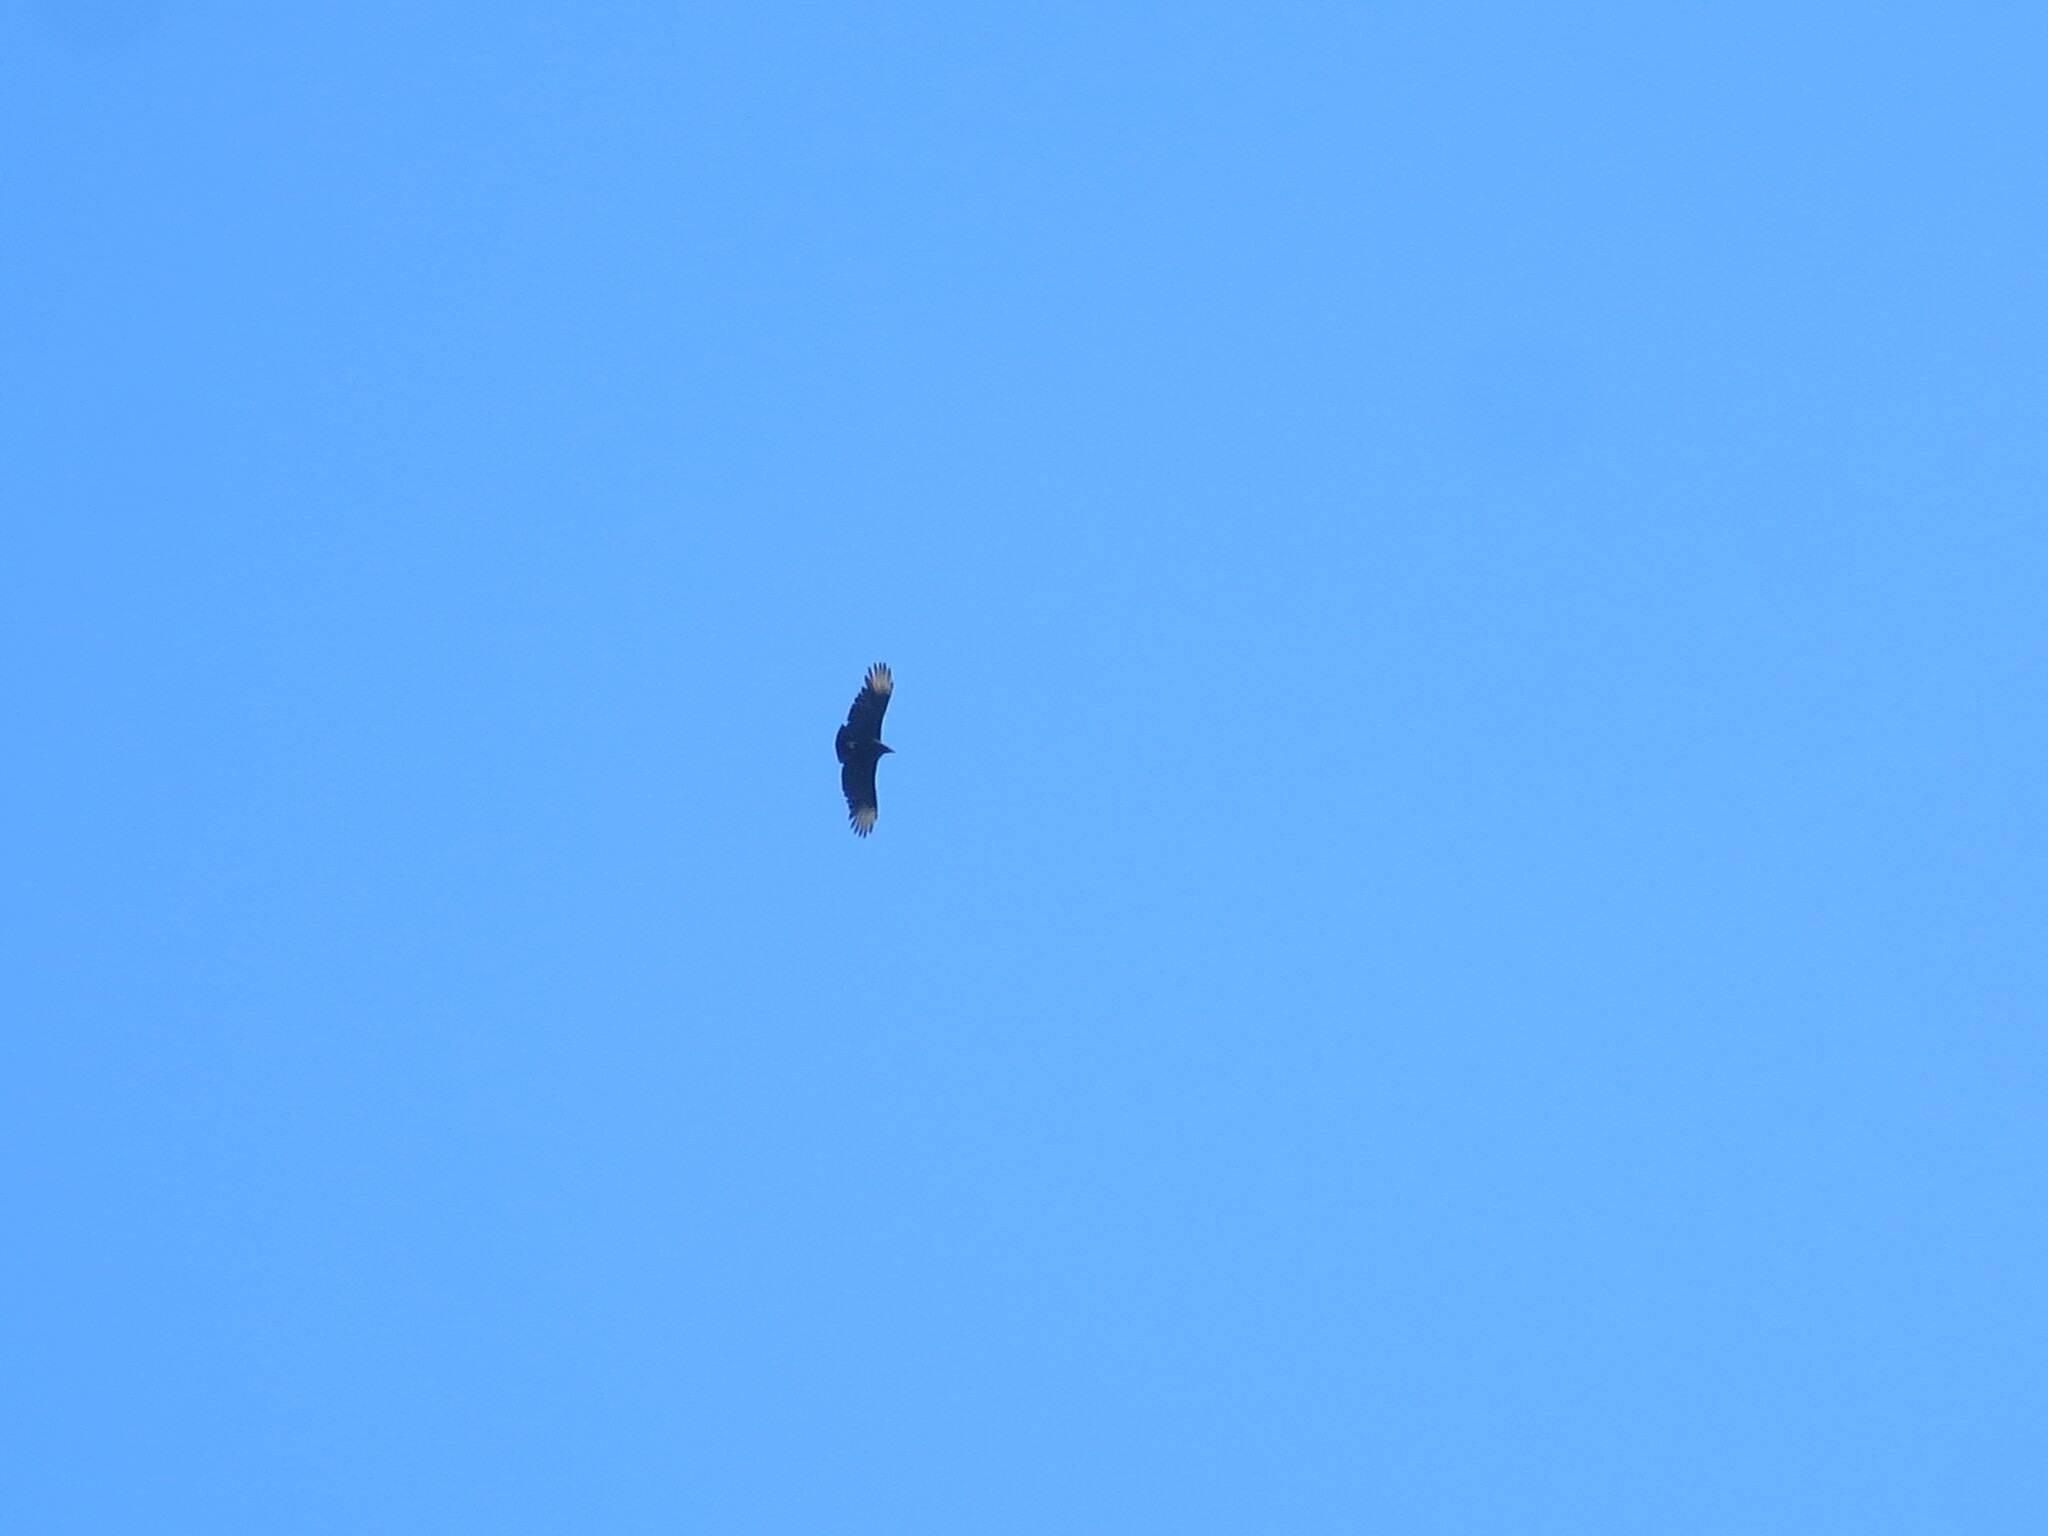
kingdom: Animalia
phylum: Chordata
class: Aves
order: Accipitriformes
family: Cathartidae
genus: Coragyps
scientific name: Coragyps atratus
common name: Black vulture
